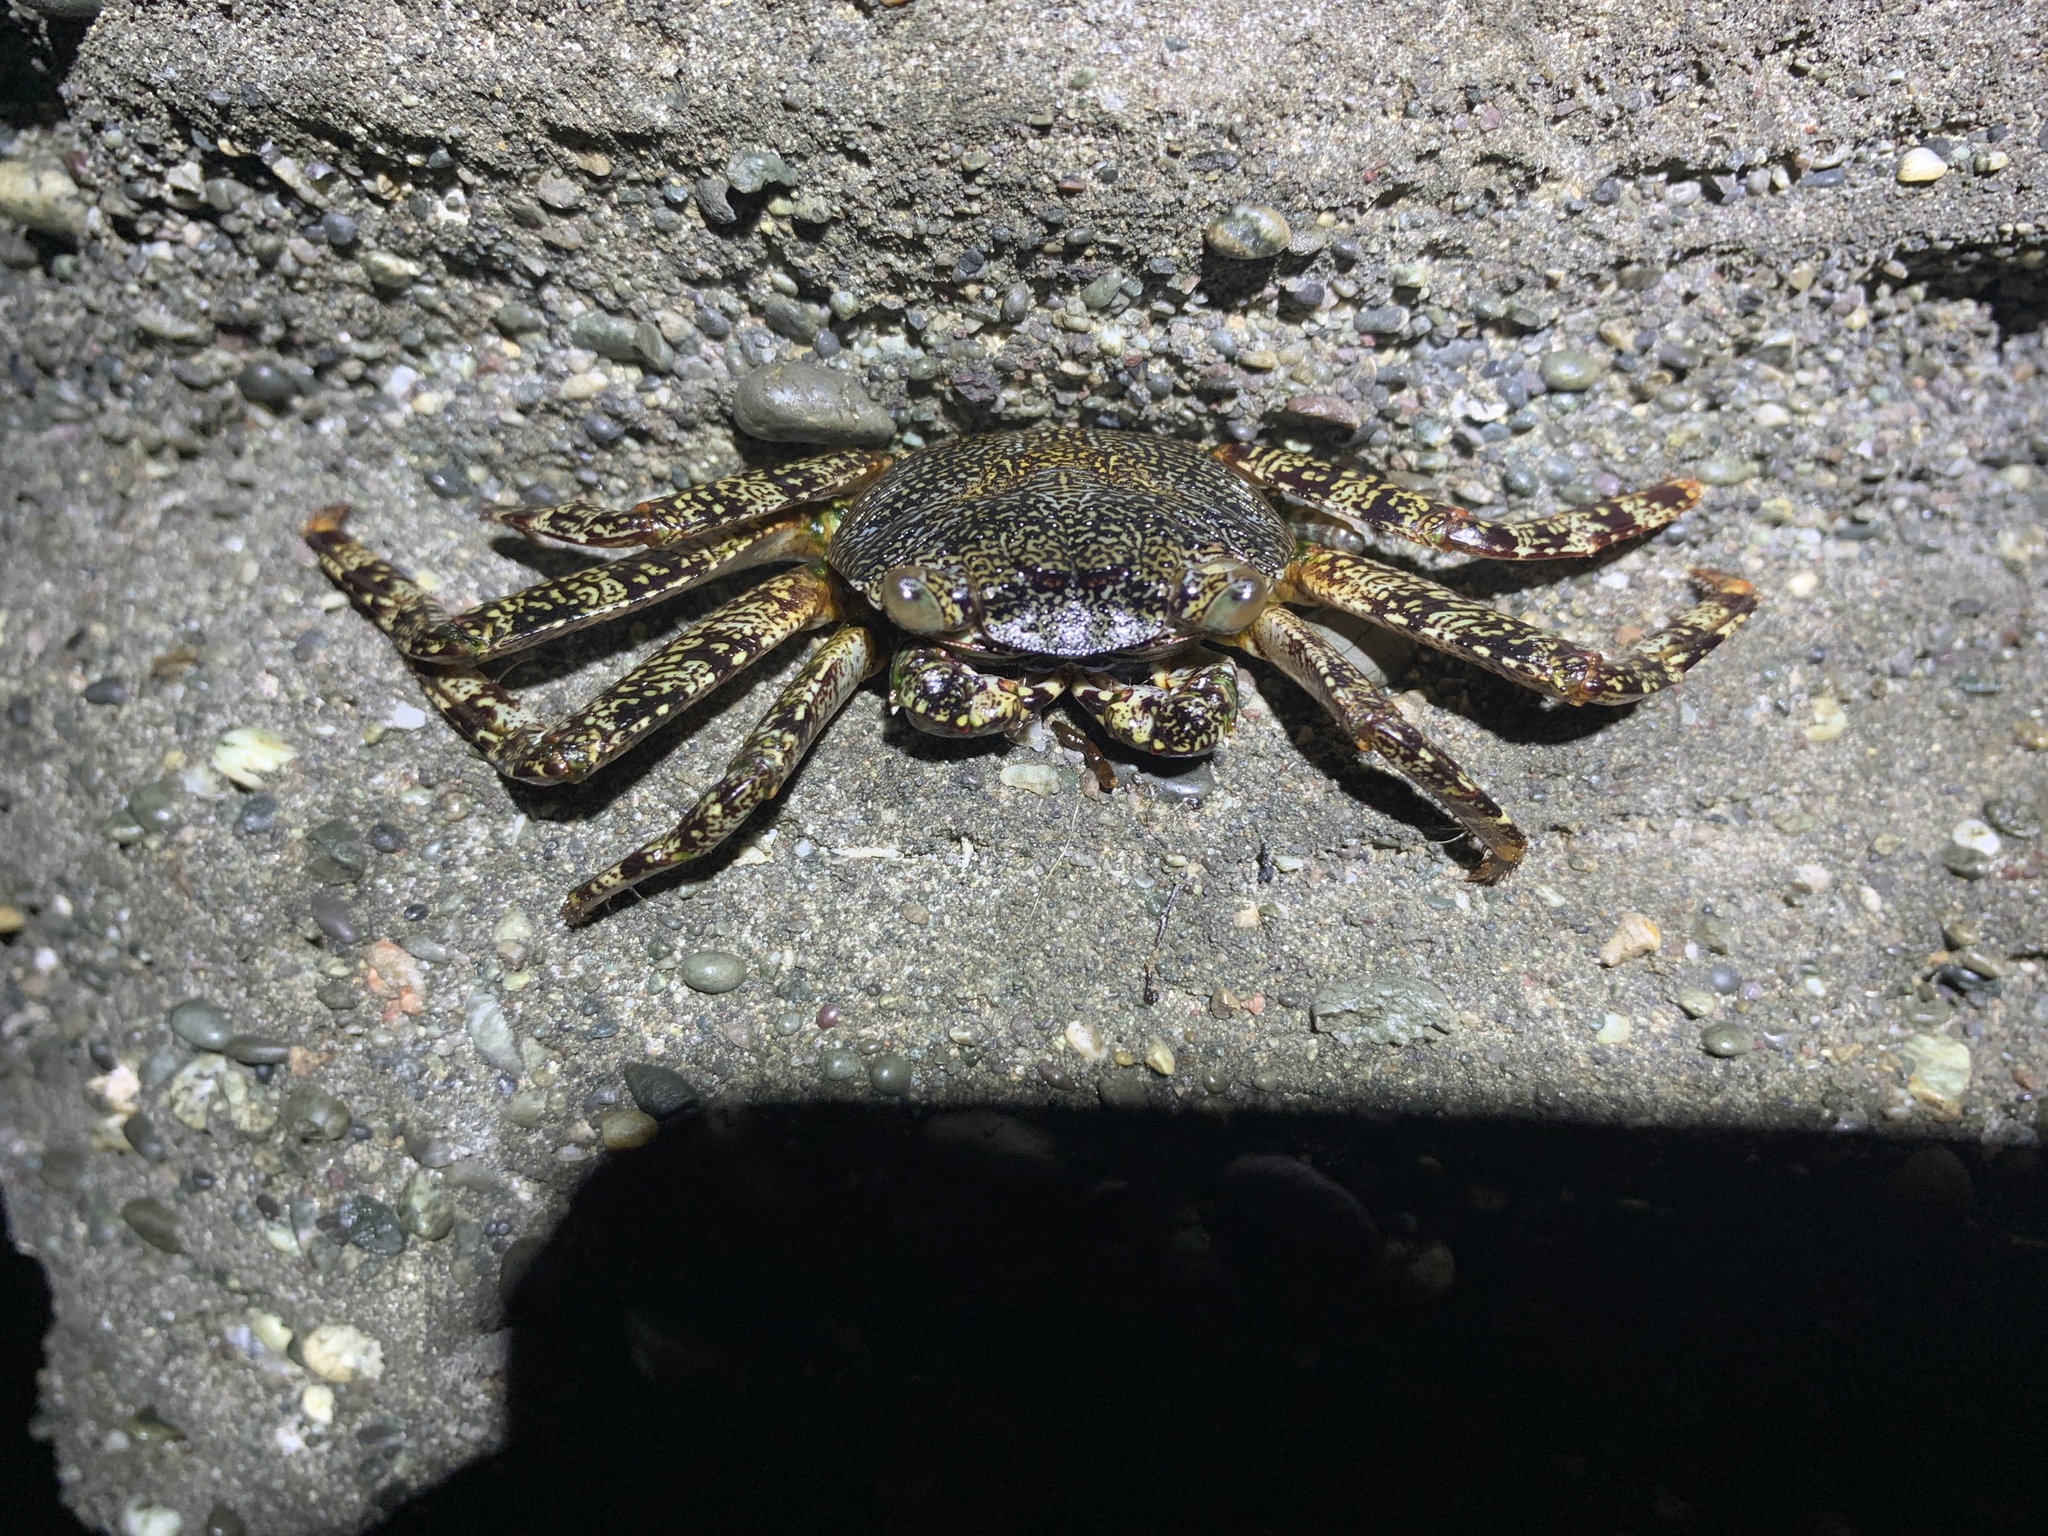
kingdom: Animalia
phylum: Arthropoda
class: Malacostraca
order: Decapoda
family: Grapsidae
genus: Grapsus
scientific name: Grapsus grapsus
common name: Sally lightfoot
